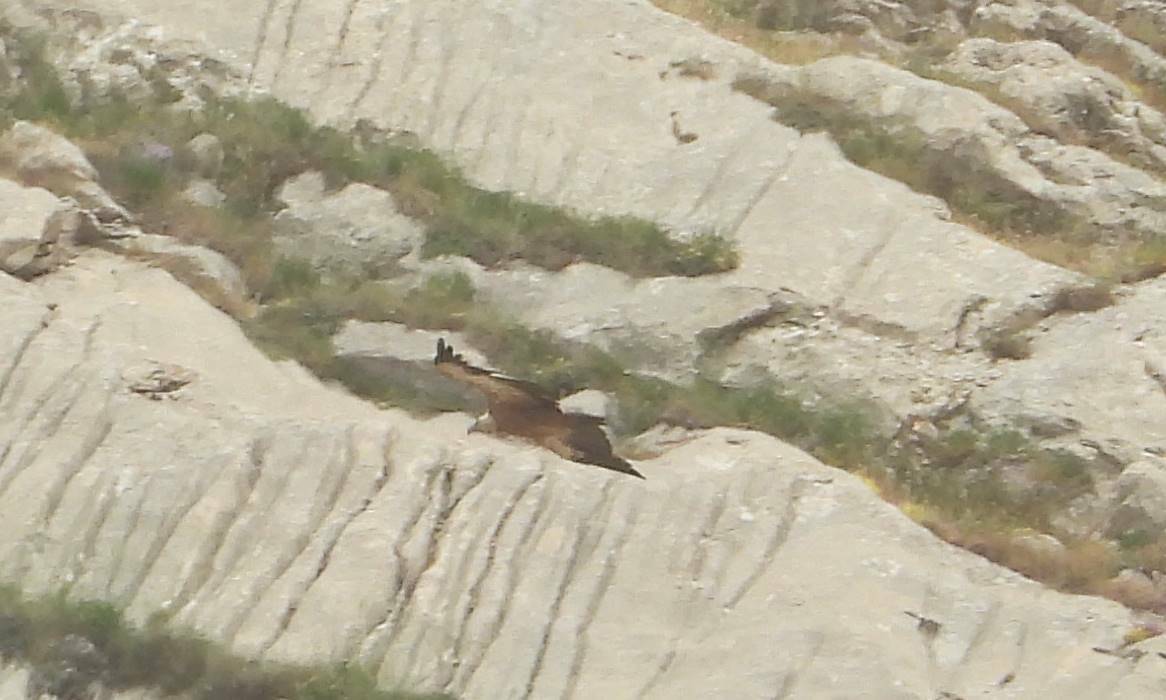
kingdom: Animalia
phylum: Chordata
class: Aves
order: Accipitriformes
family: Accipitridae
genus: Gyps
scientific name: Gyps fulvus
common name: Griffon vulture
